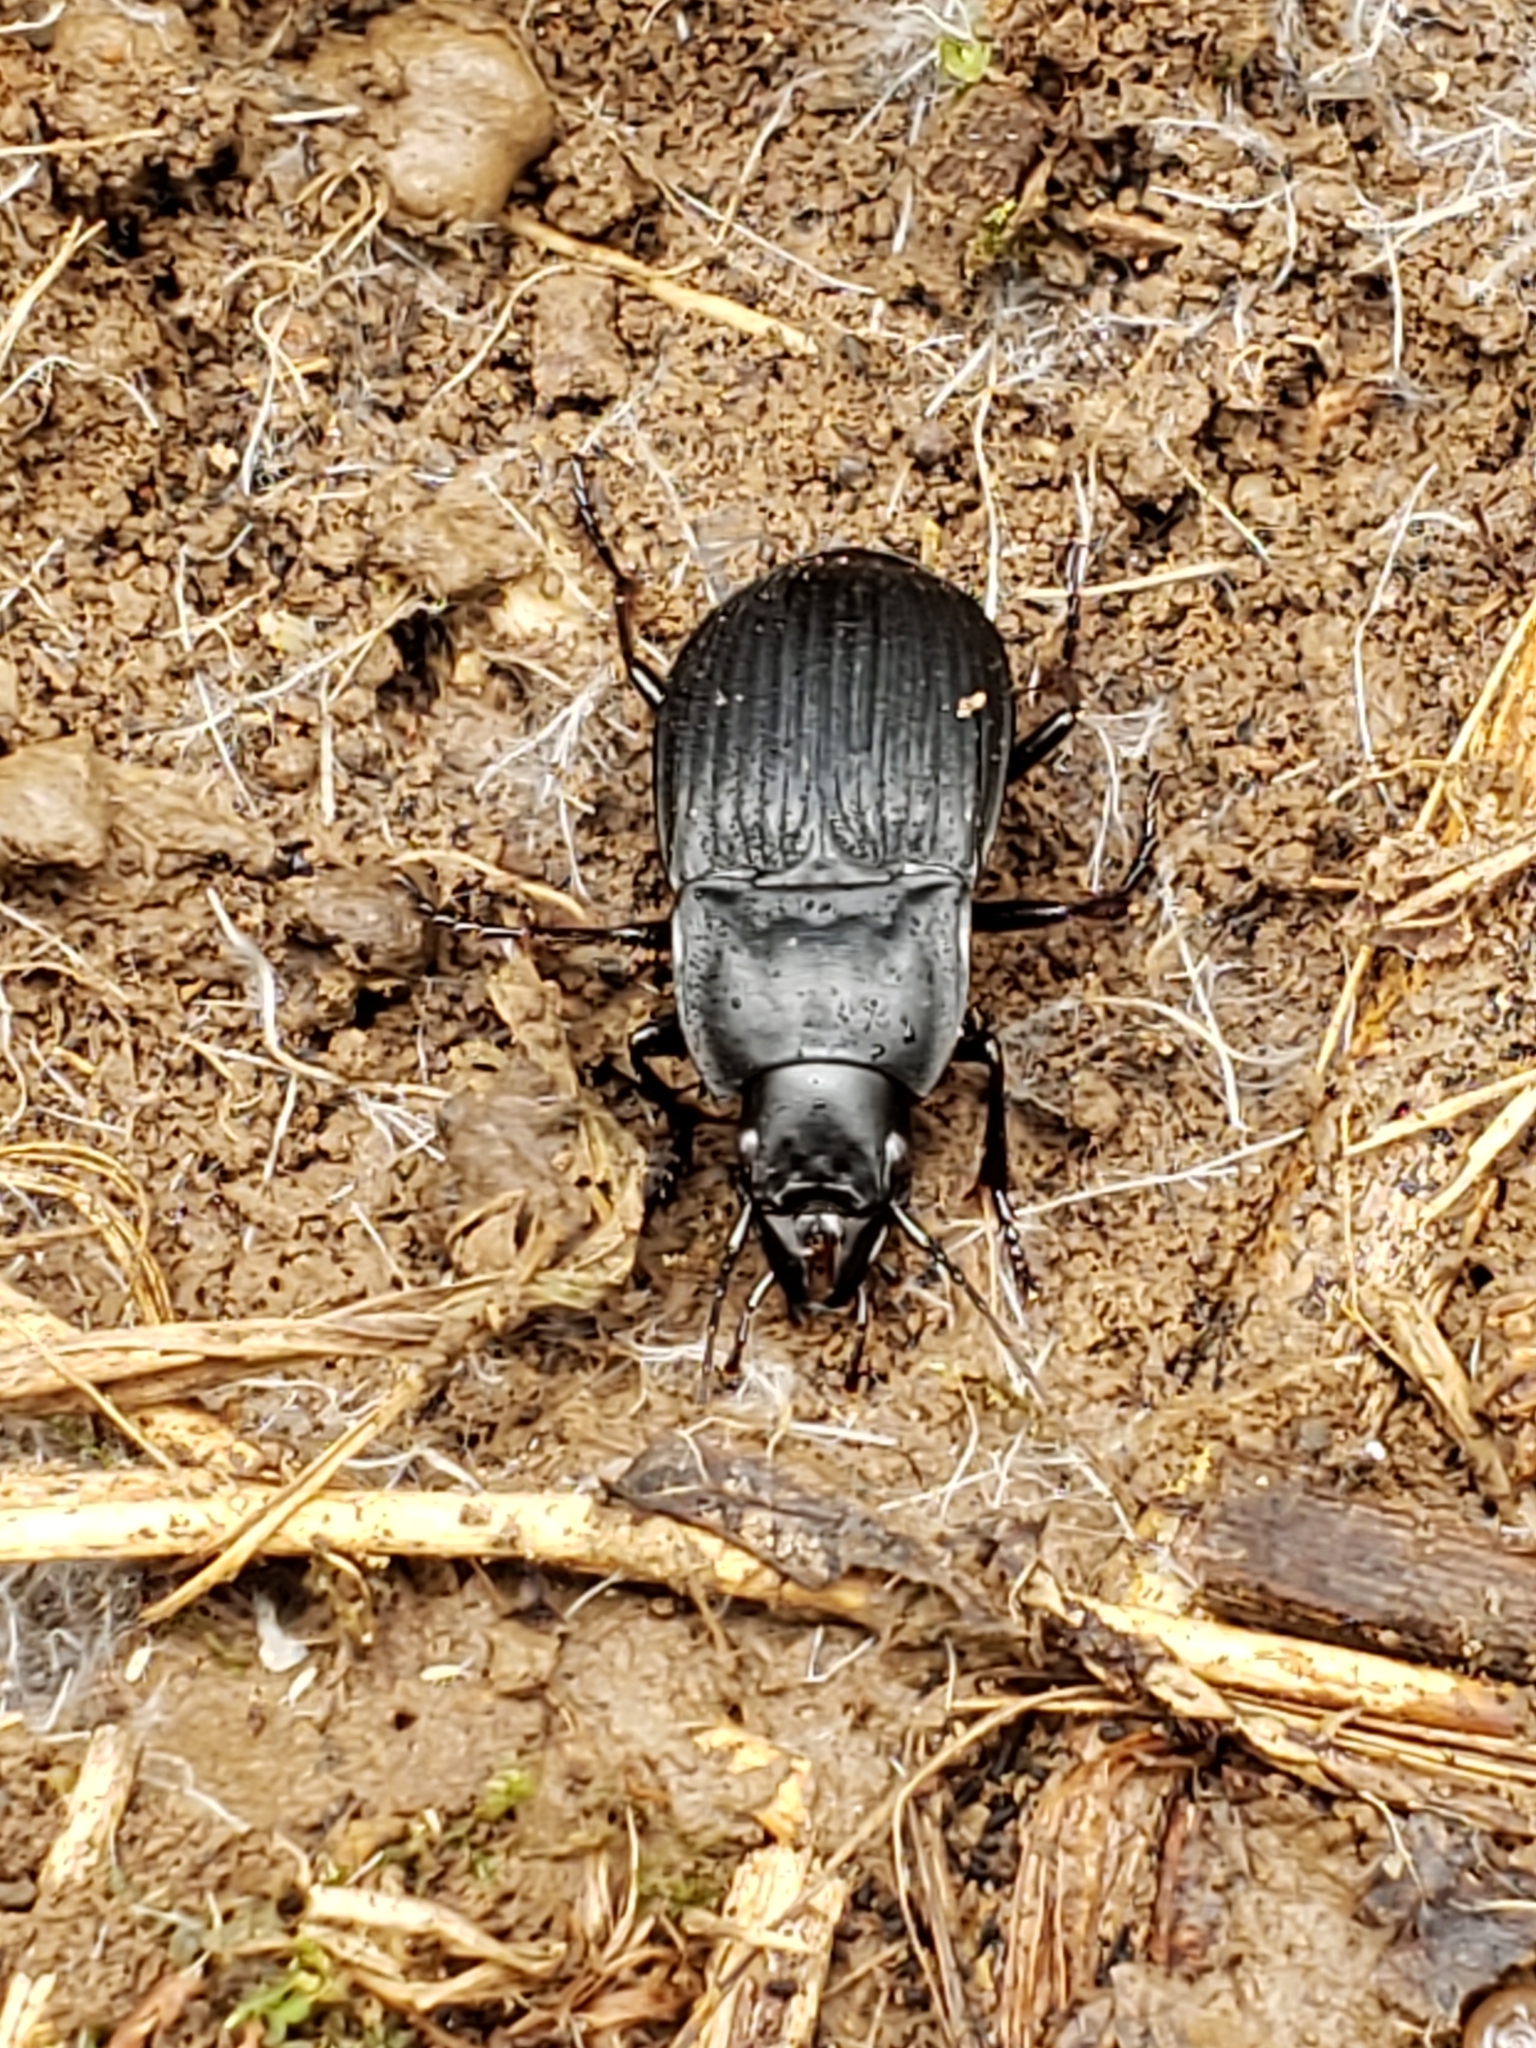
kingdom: Animalia
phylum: Arthropoda
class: Insecta
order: Coleoptera
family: Carabidae
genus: Dicaelus
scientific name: Dicaelus purpuratus
